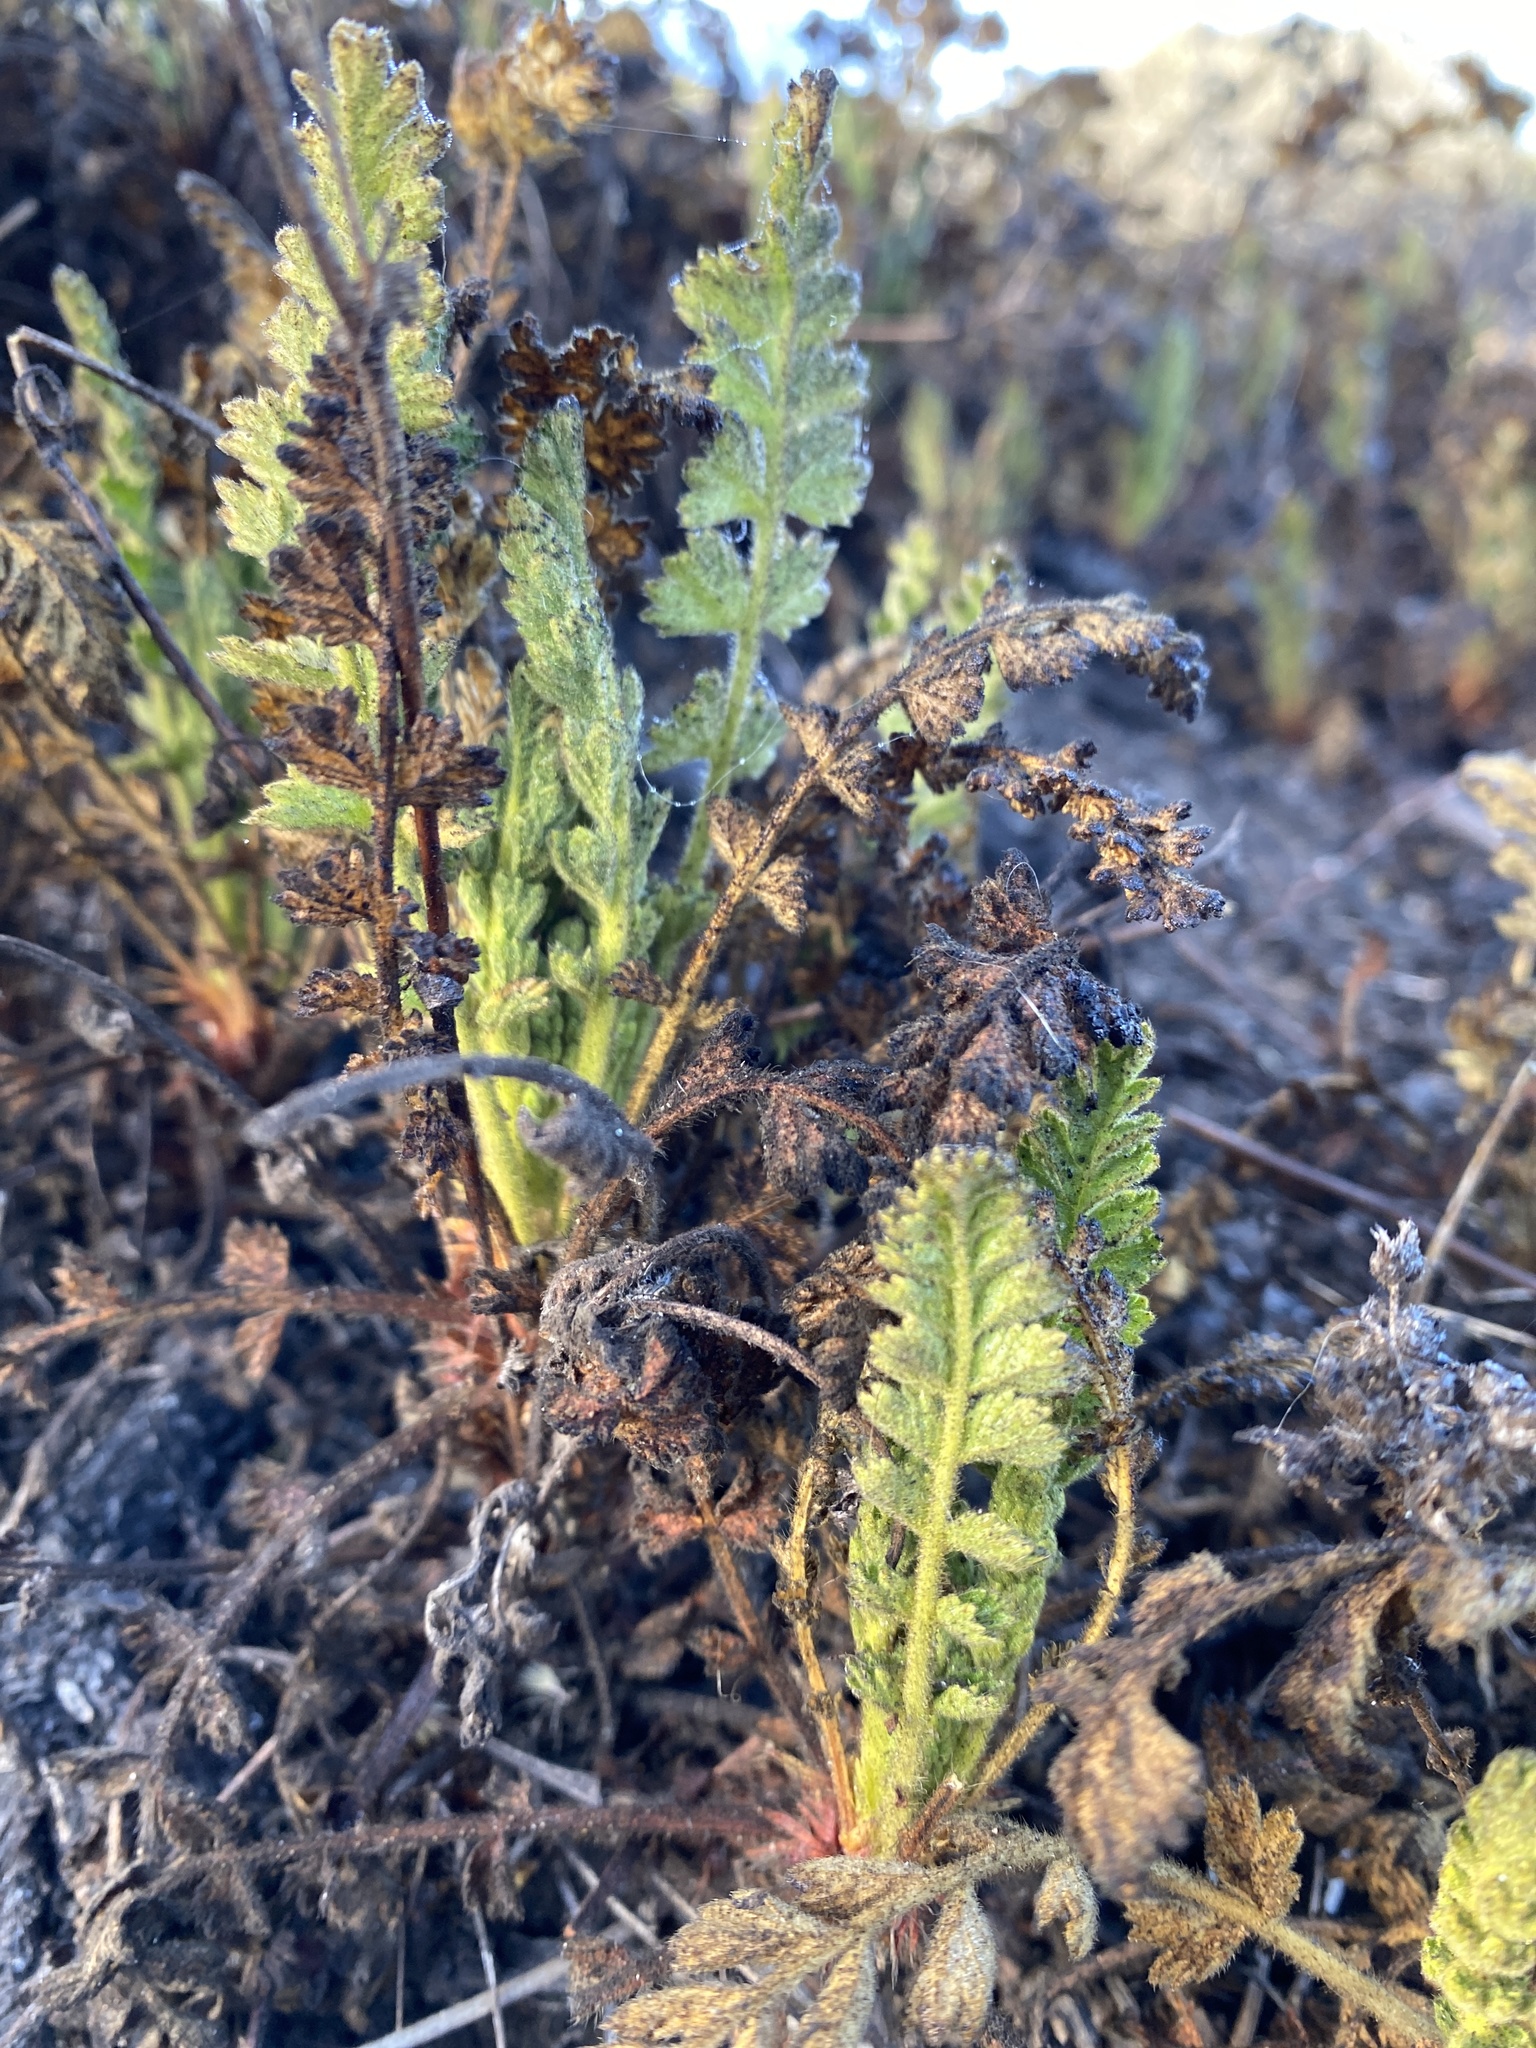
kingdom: Plantae
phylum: Tracheophyta
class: Magnoliopsida
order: Rosales
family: Rosaceae
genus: Potentilla
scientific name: Potentilla
